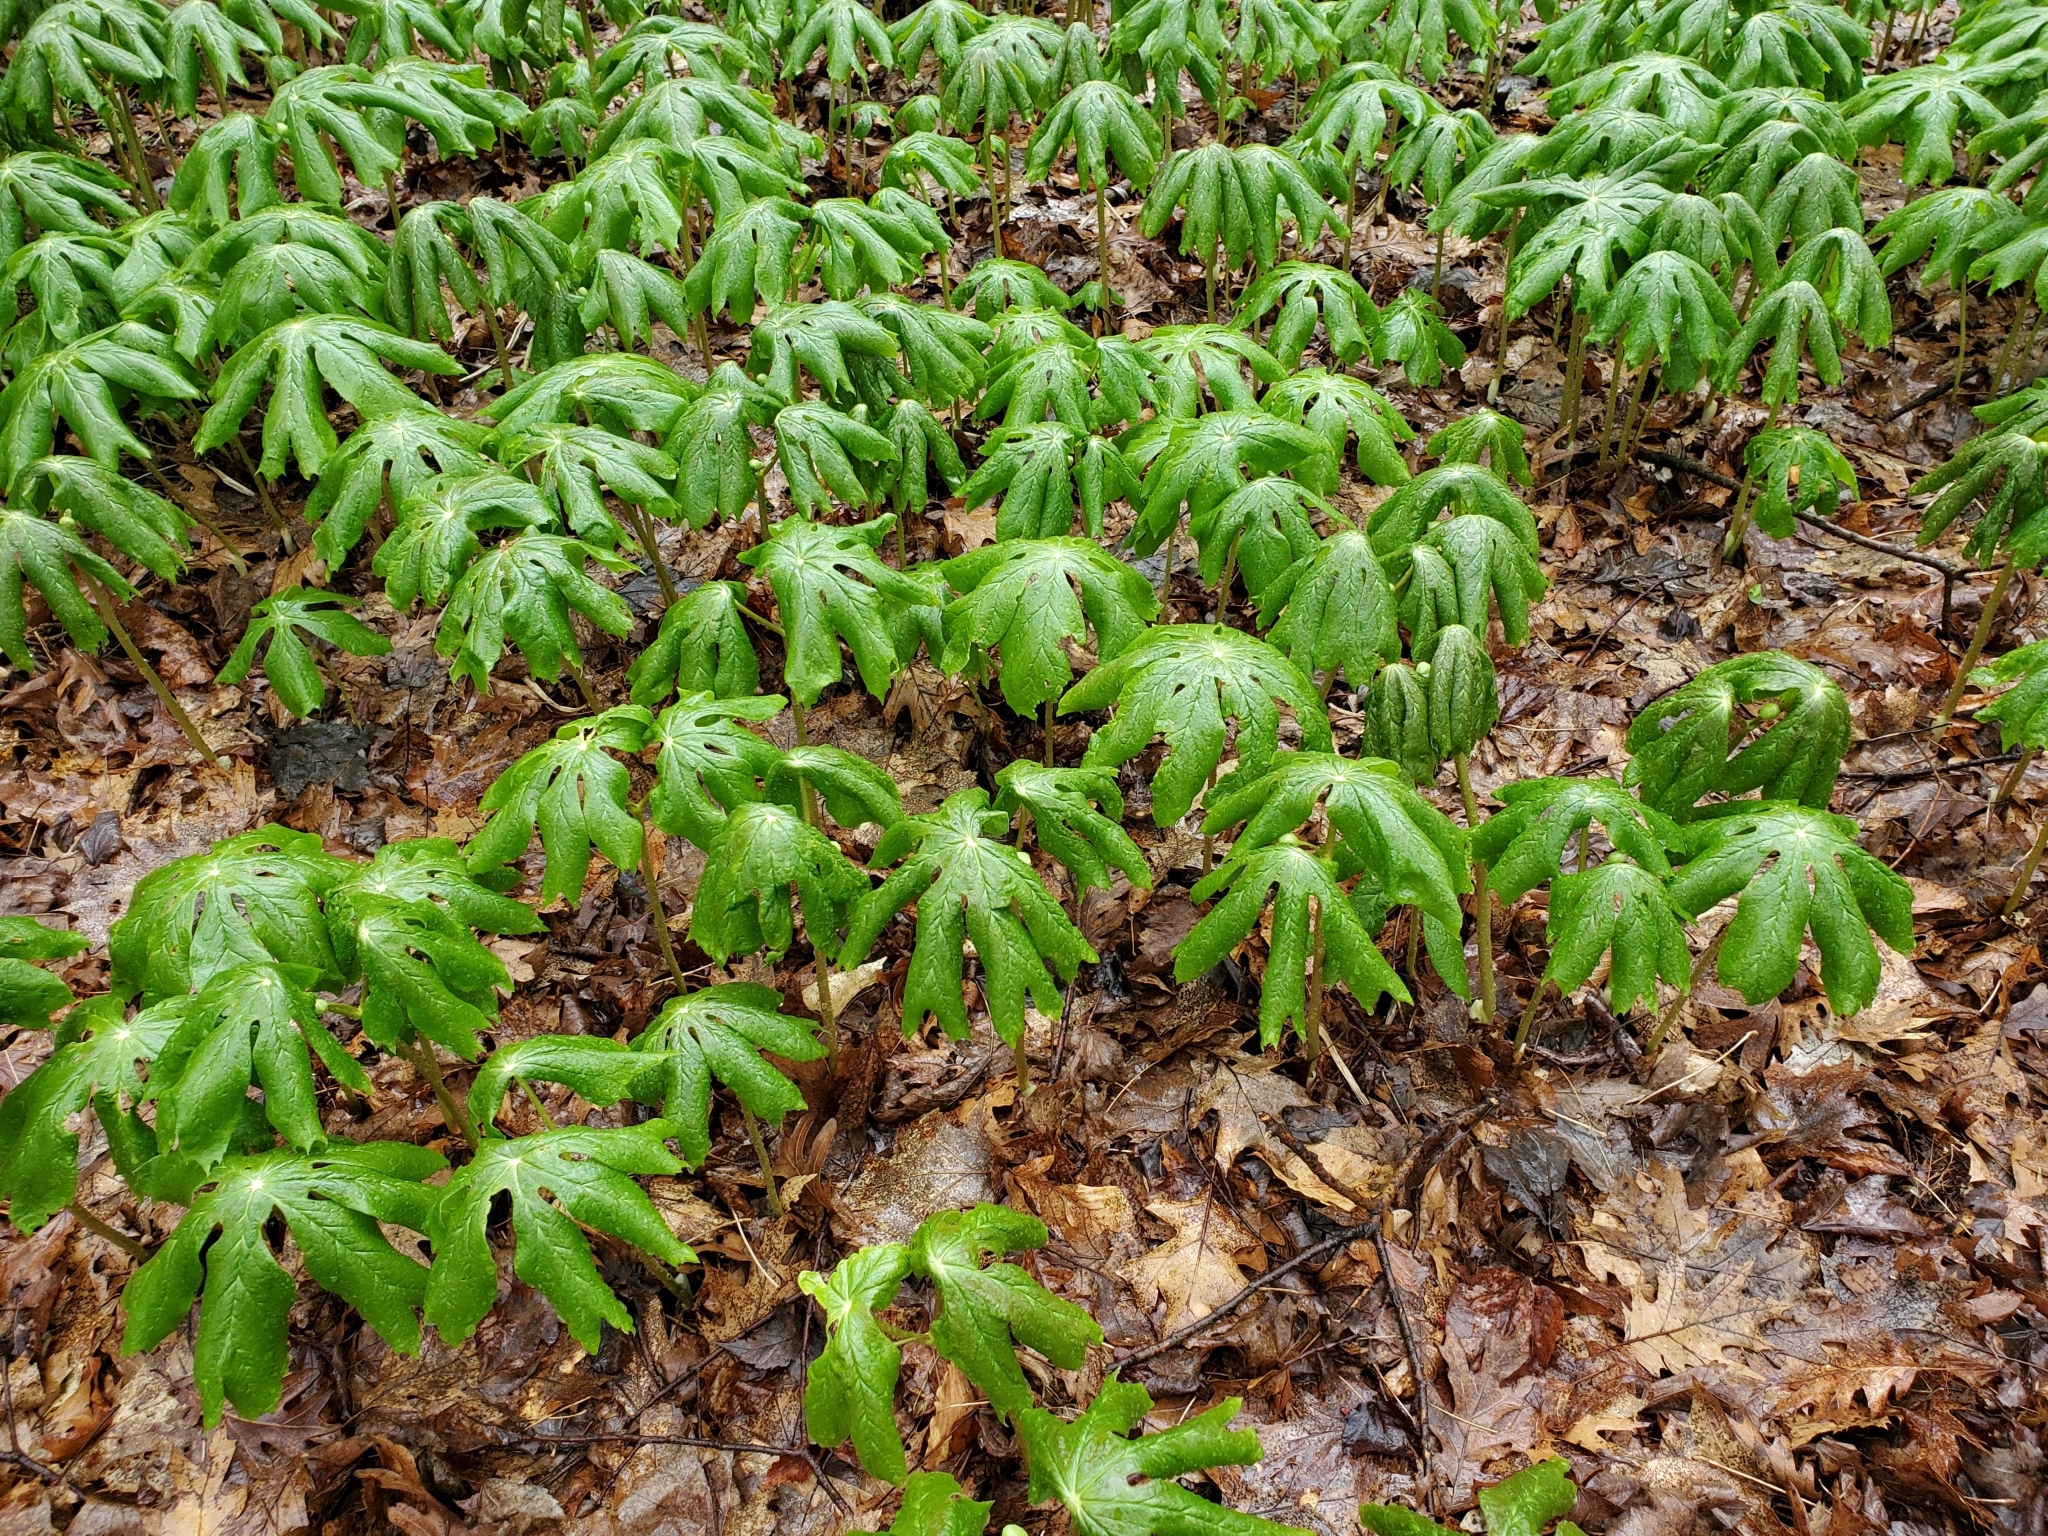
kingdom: Plantae
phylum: Tracheophyta
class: Magnoliopsida
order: Ranunculales
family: Berberidaceae
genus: Podophyllum
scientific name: Podophyllum peltatum
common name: Wild mandrake
